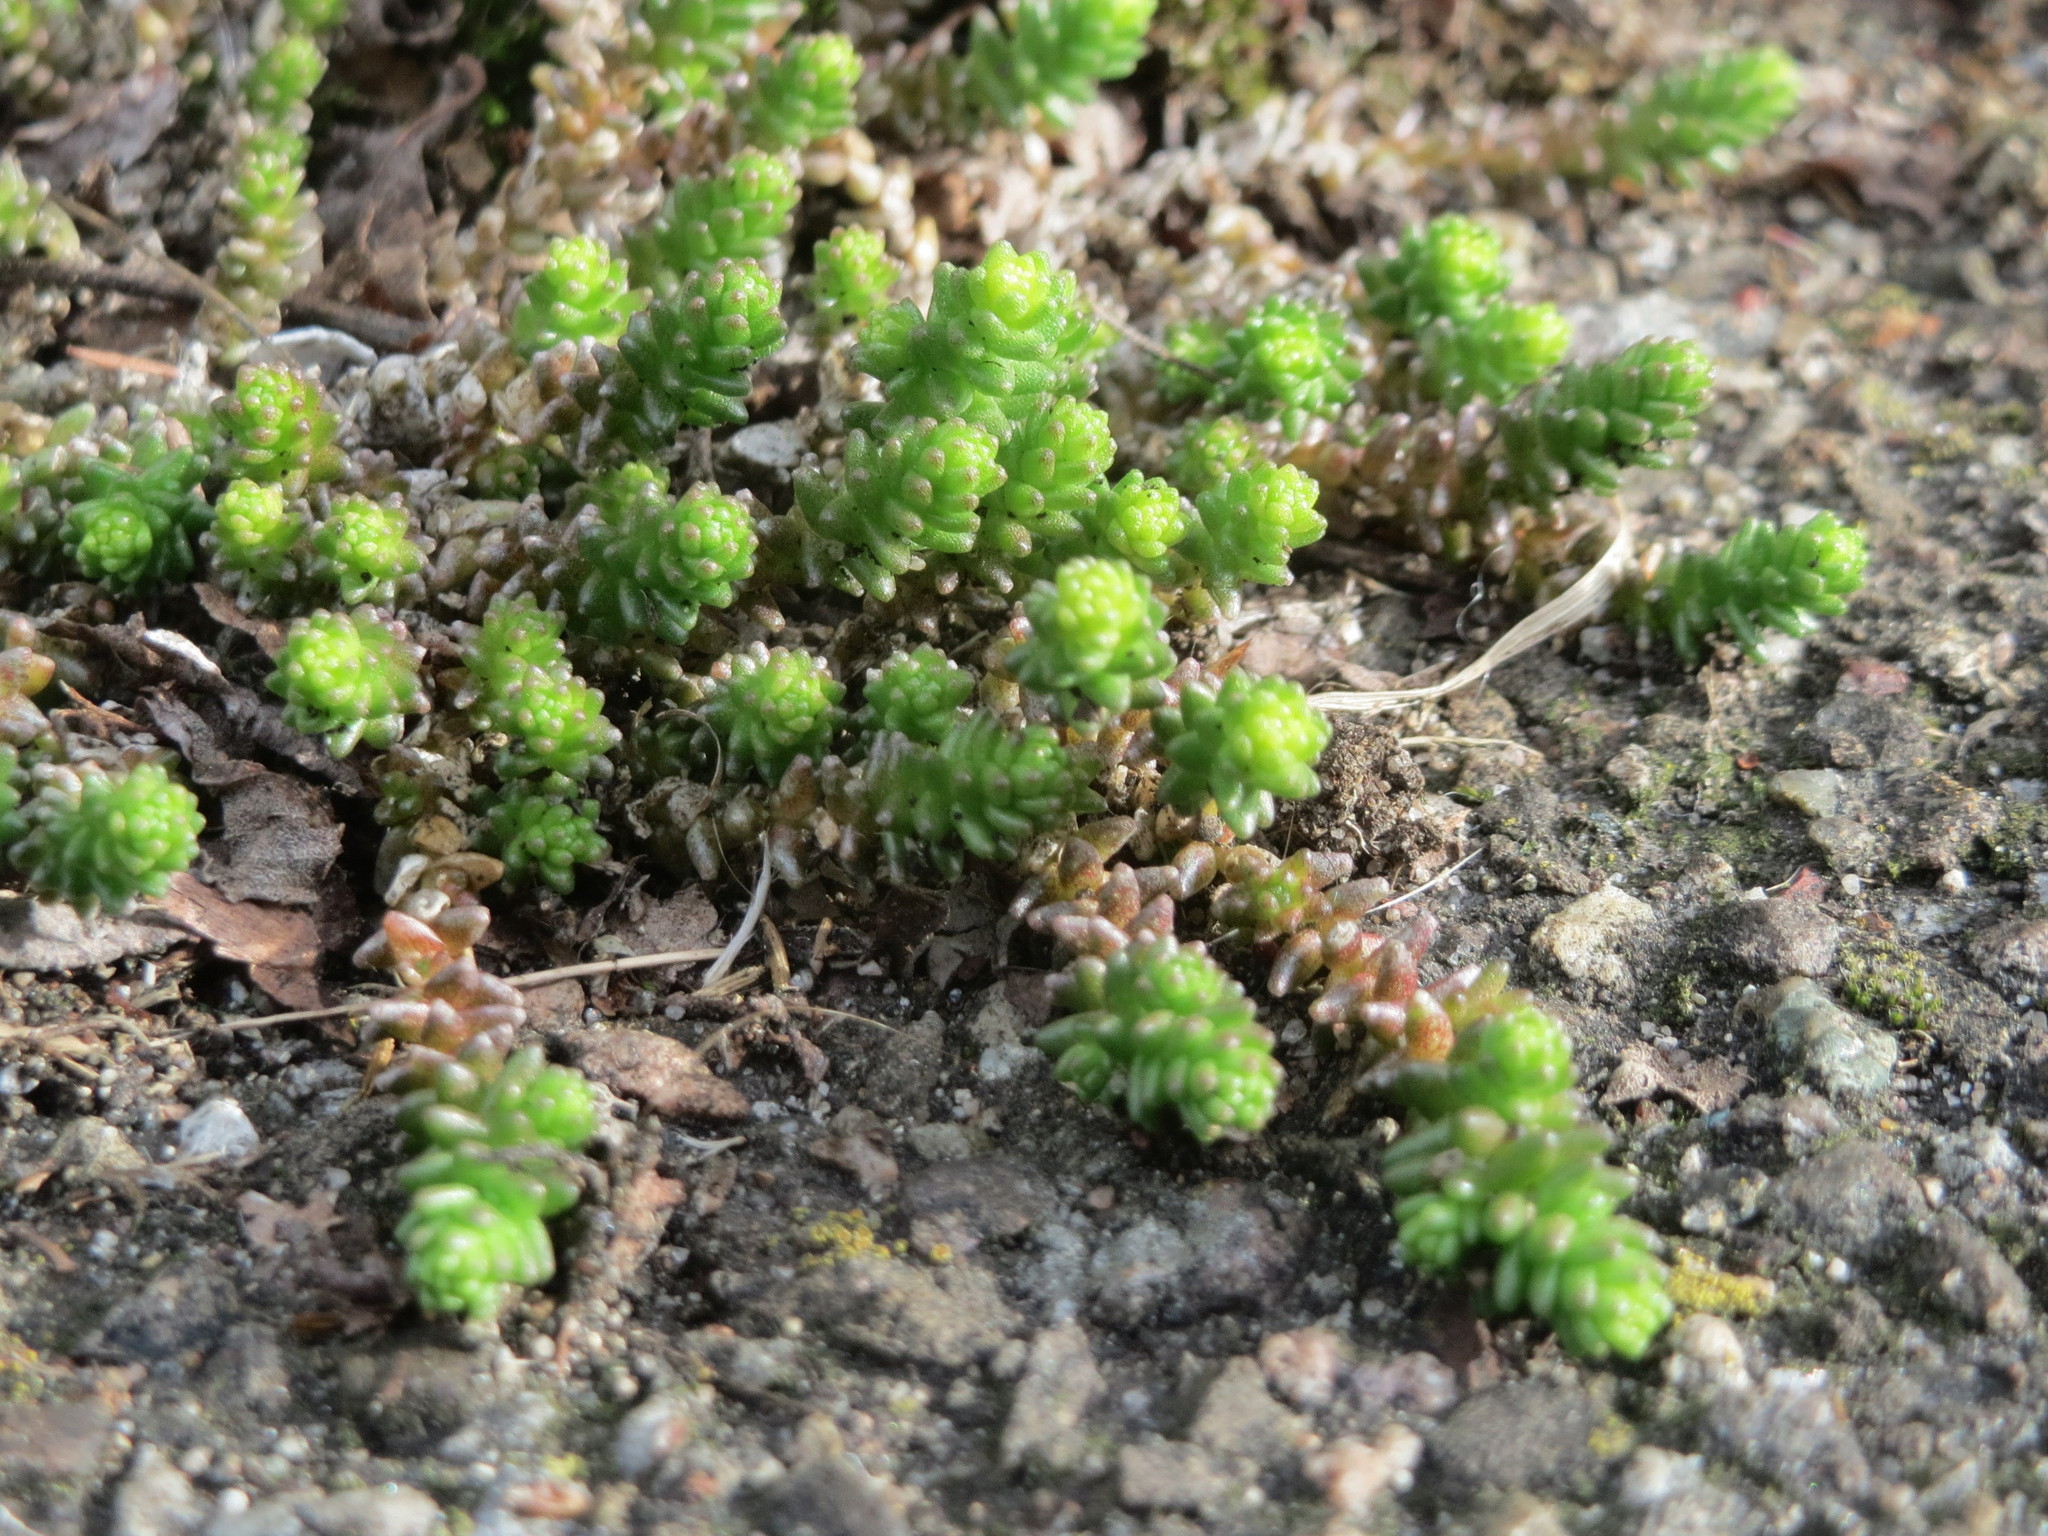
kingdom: Plantae
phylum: Tracheophyta
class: Magnoliopsida
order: Saxifragales
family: Crassulaceae
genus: Sedum
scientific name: Sedum acre
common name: Biting stonecrop
